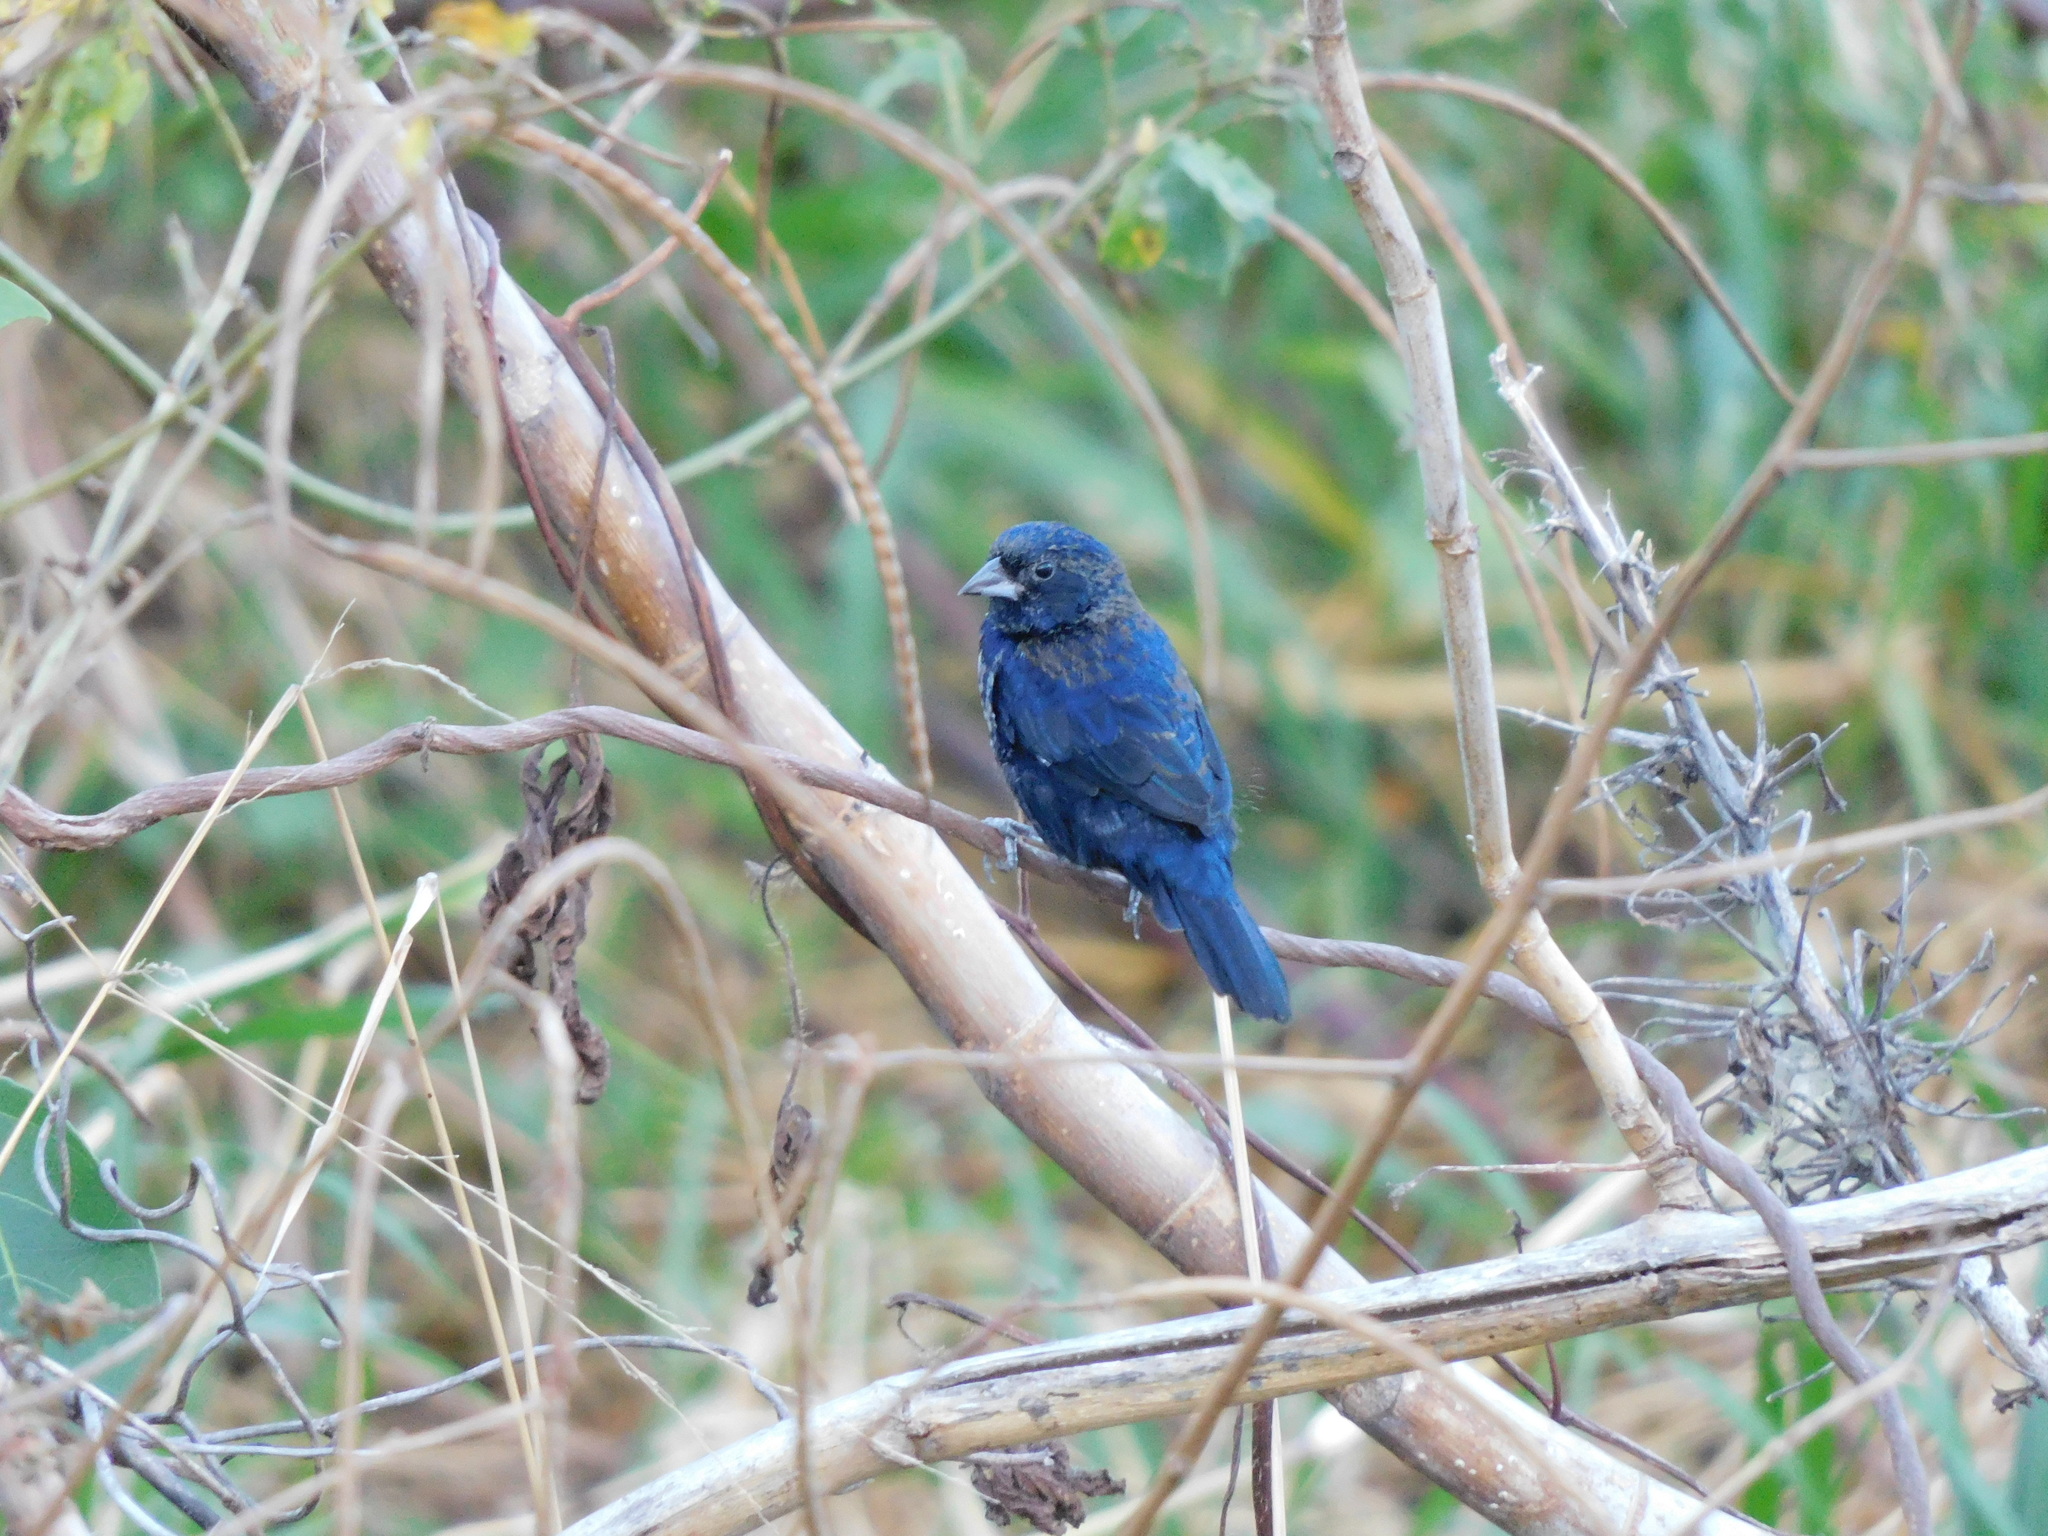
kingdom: Animalia
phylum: Chordata
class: Aves
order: Passeriformes
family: Thraupidae
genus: Volatinia
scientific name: Volatinia jacarina
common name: Blue-black grassquit
